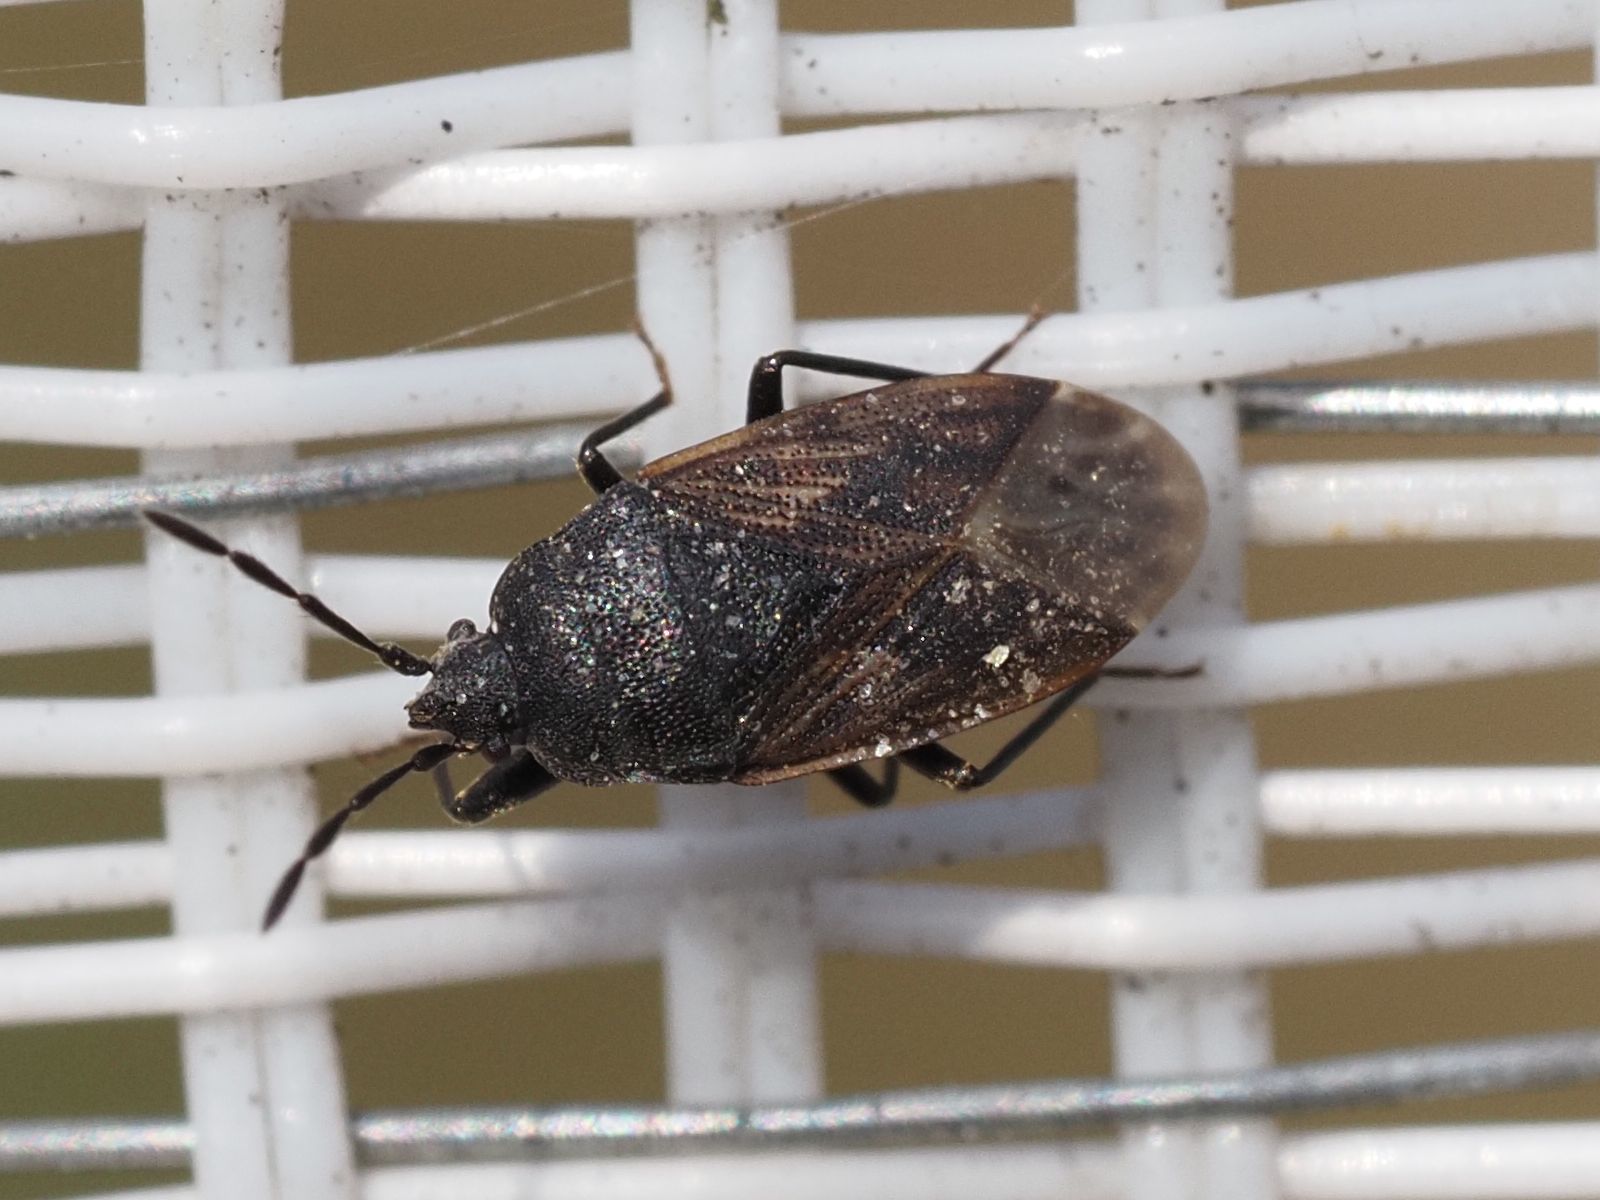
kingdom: Animalia
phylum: Arthropoda
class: Insecta
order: Hemiptera
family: Rhyparochromidae
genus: Drymus
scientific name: Drymus sylvaticus
